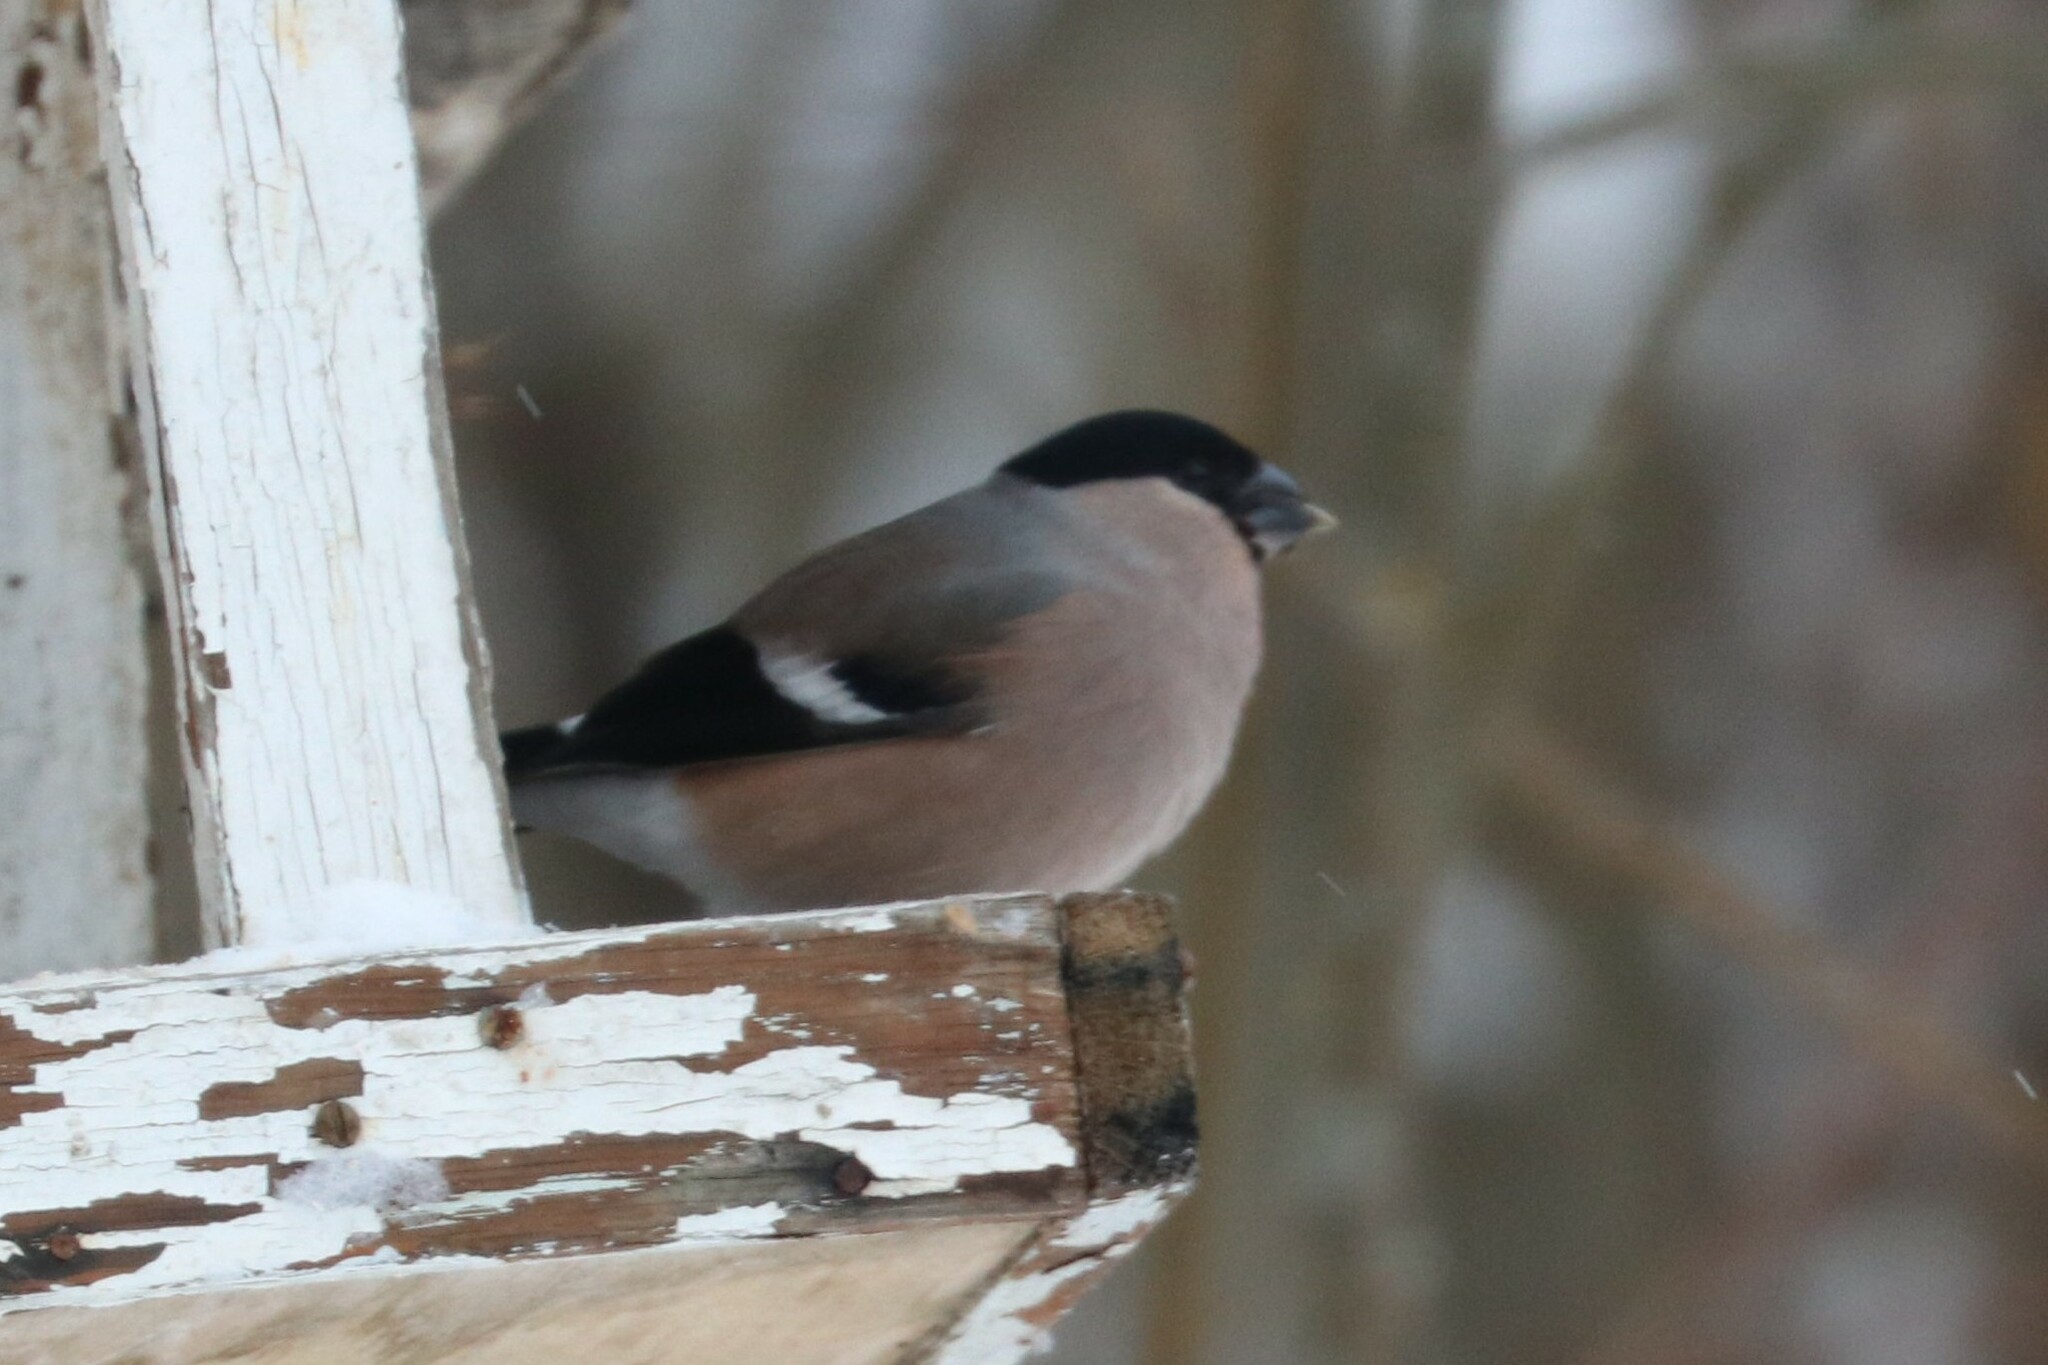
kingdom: Animalia
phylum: Chordata
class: Aves
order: Passeriformes
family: Fringillidae
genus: Pyrrhula
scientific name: Pyrrhula pyrrhula
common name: Eurasian bullfinch
